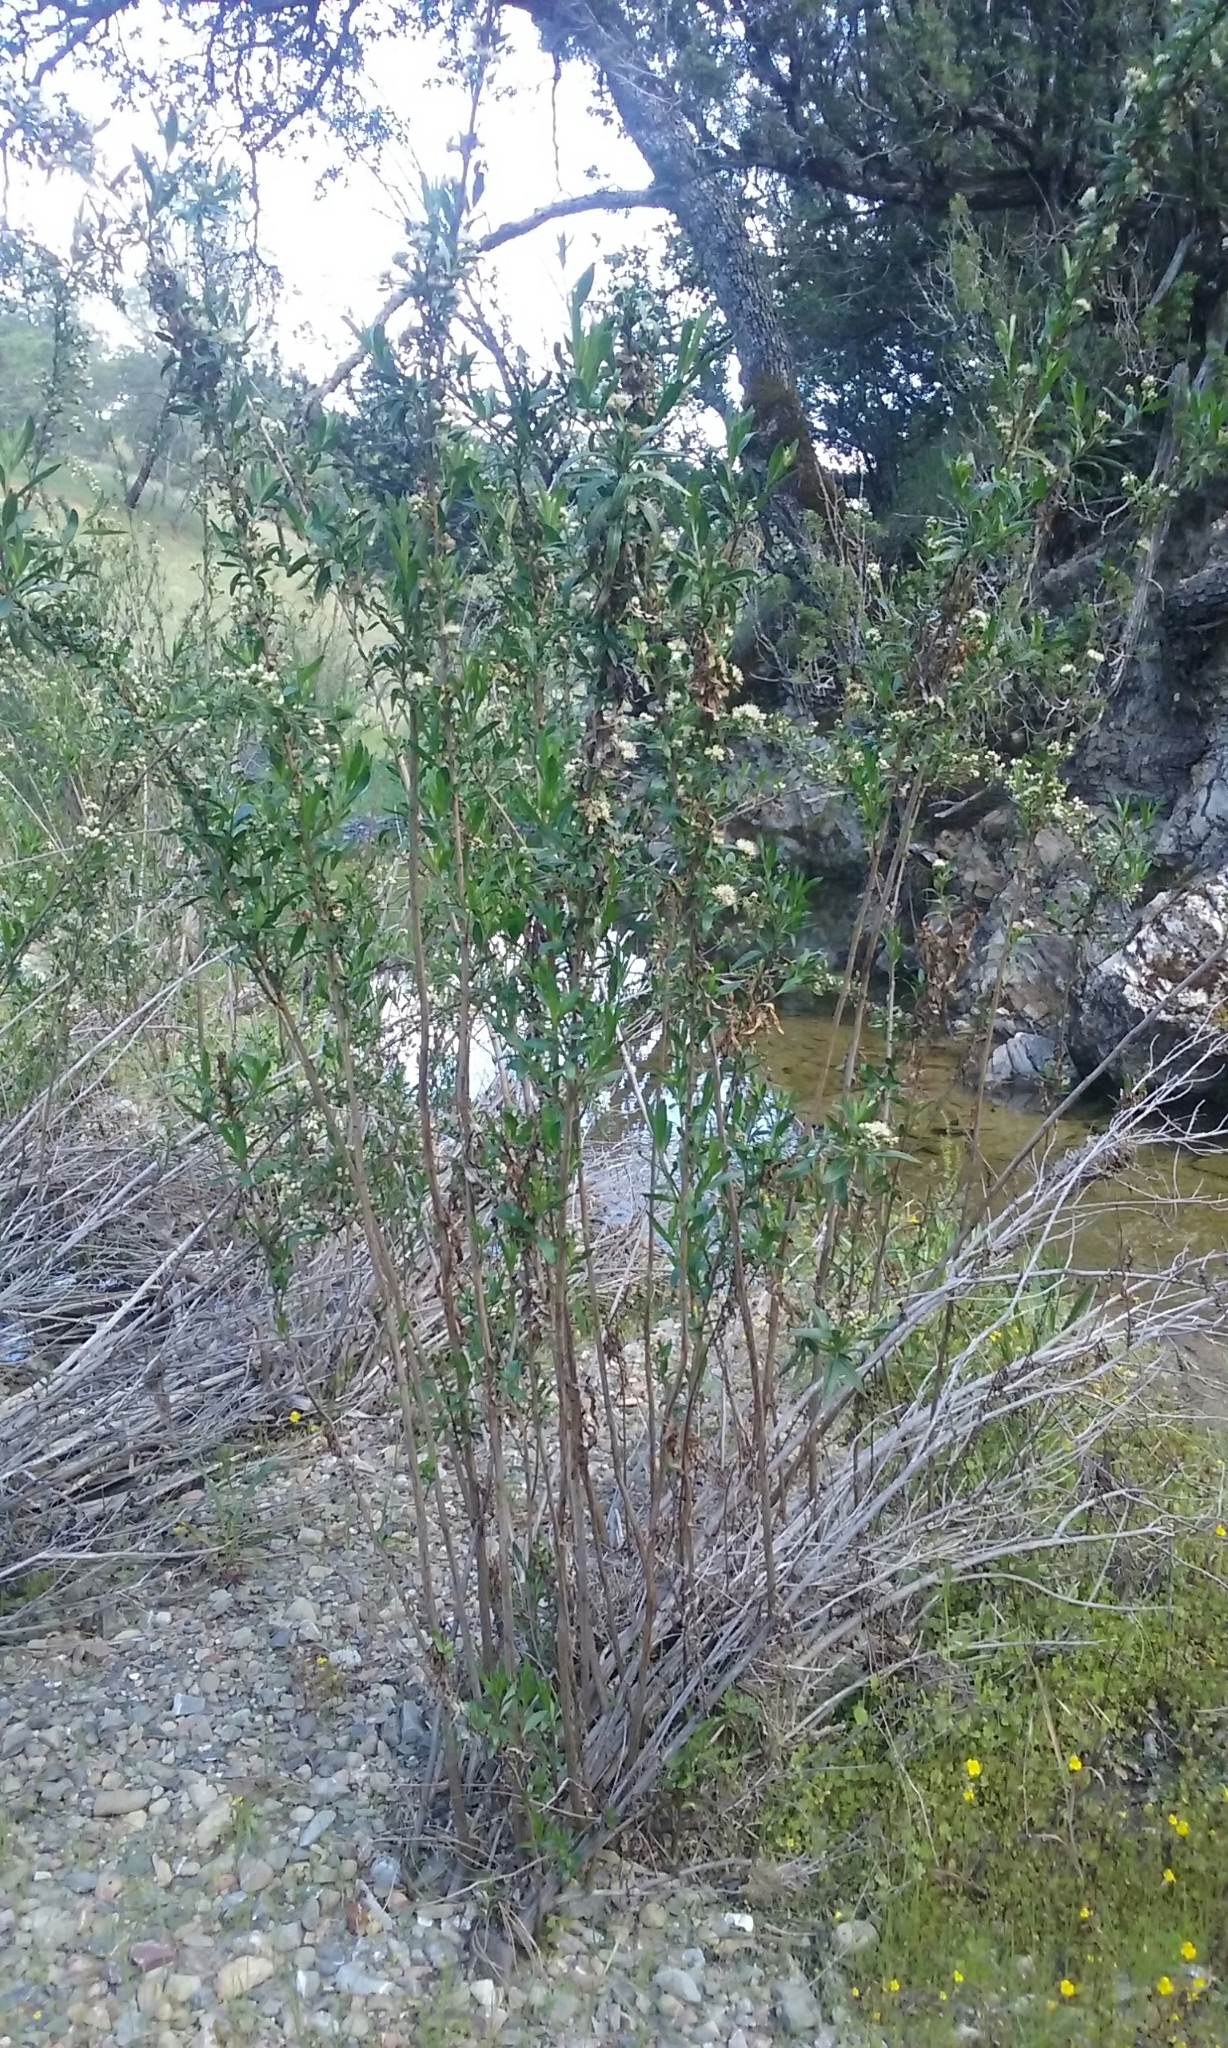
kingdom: Plantae
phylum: Tracheophyta
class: Magnoliopsida
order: Asterales
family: Asteraceae
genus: Baccharis
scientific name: Baccharis salicifolia
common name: Sticky baccharis
